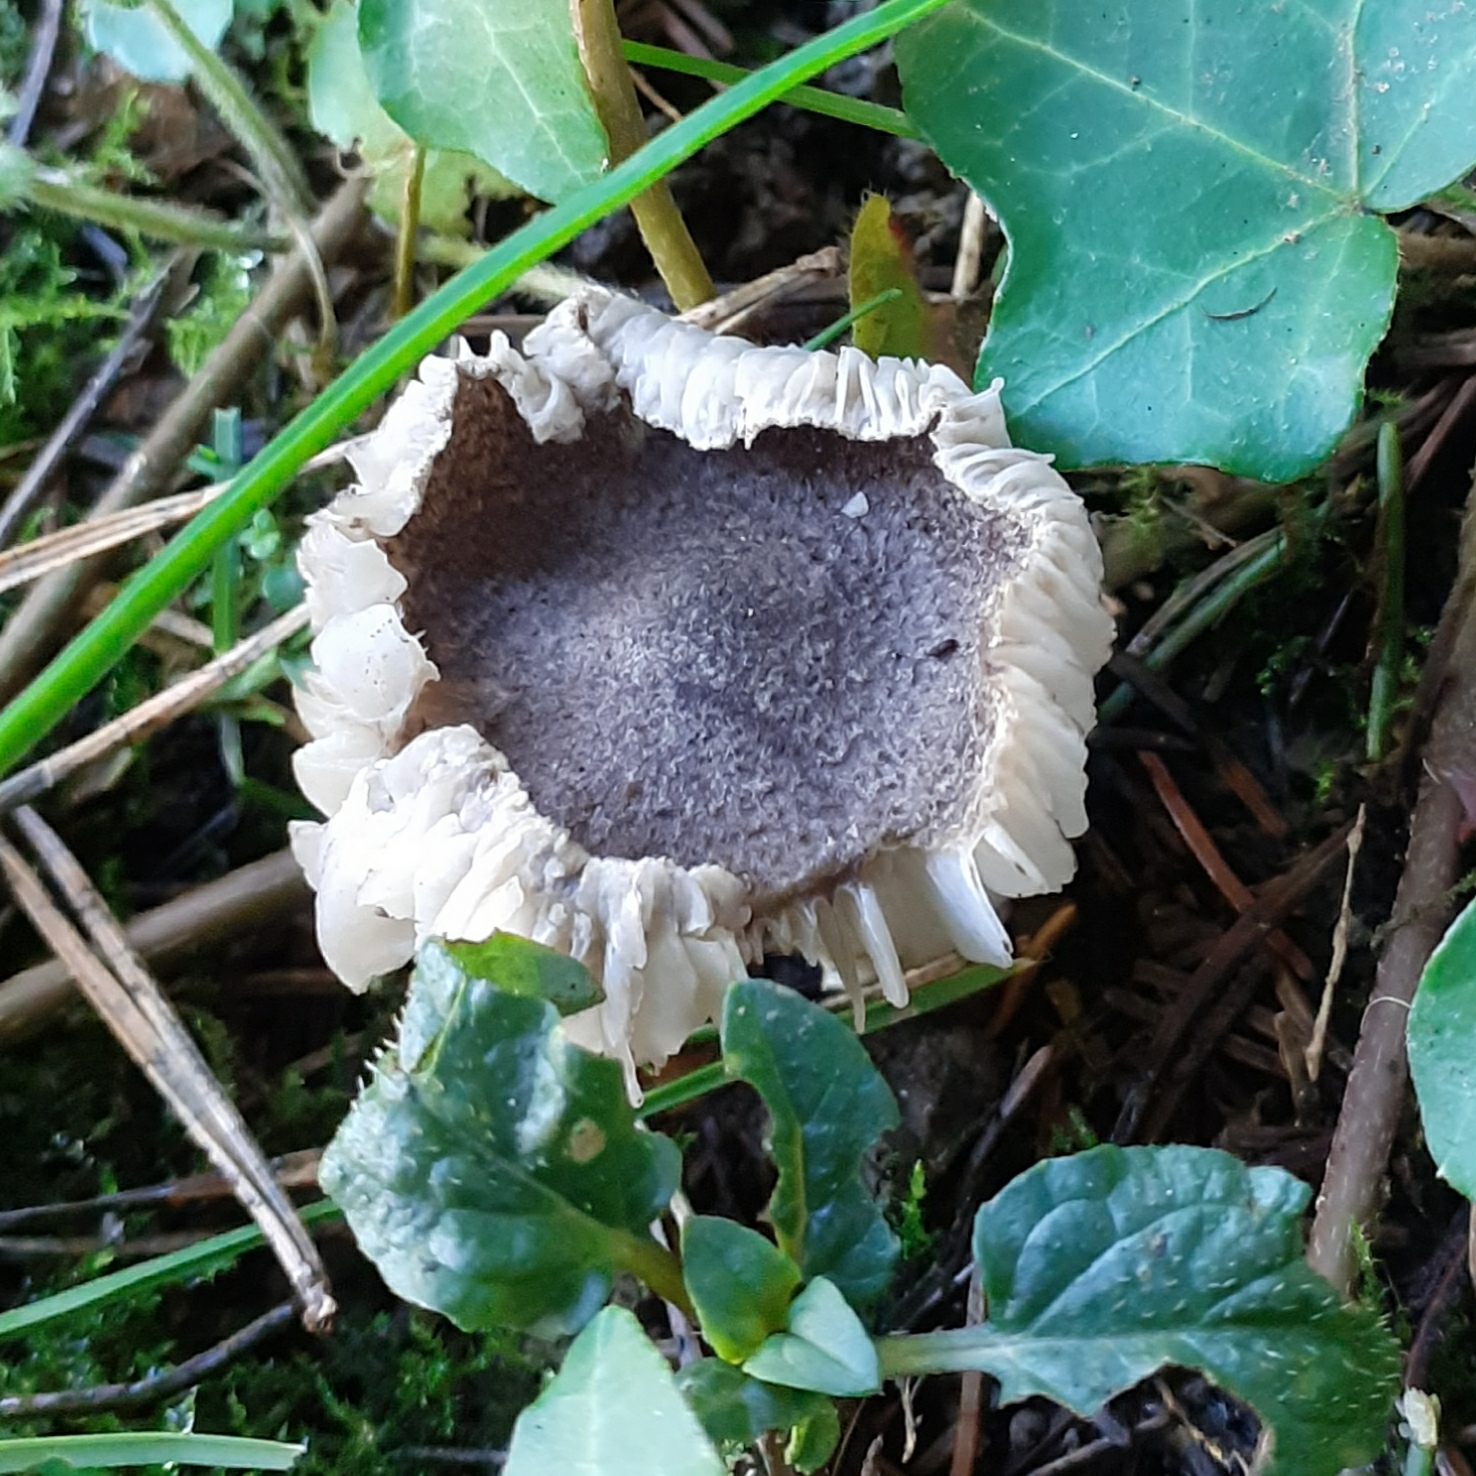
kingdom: Fungi
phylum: Basidiomycota
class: Agaricomycetes
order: Agaricales
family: Tricholomataceae
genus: Tricholoma
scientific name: Tricholoma terreum
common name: Grey knight
